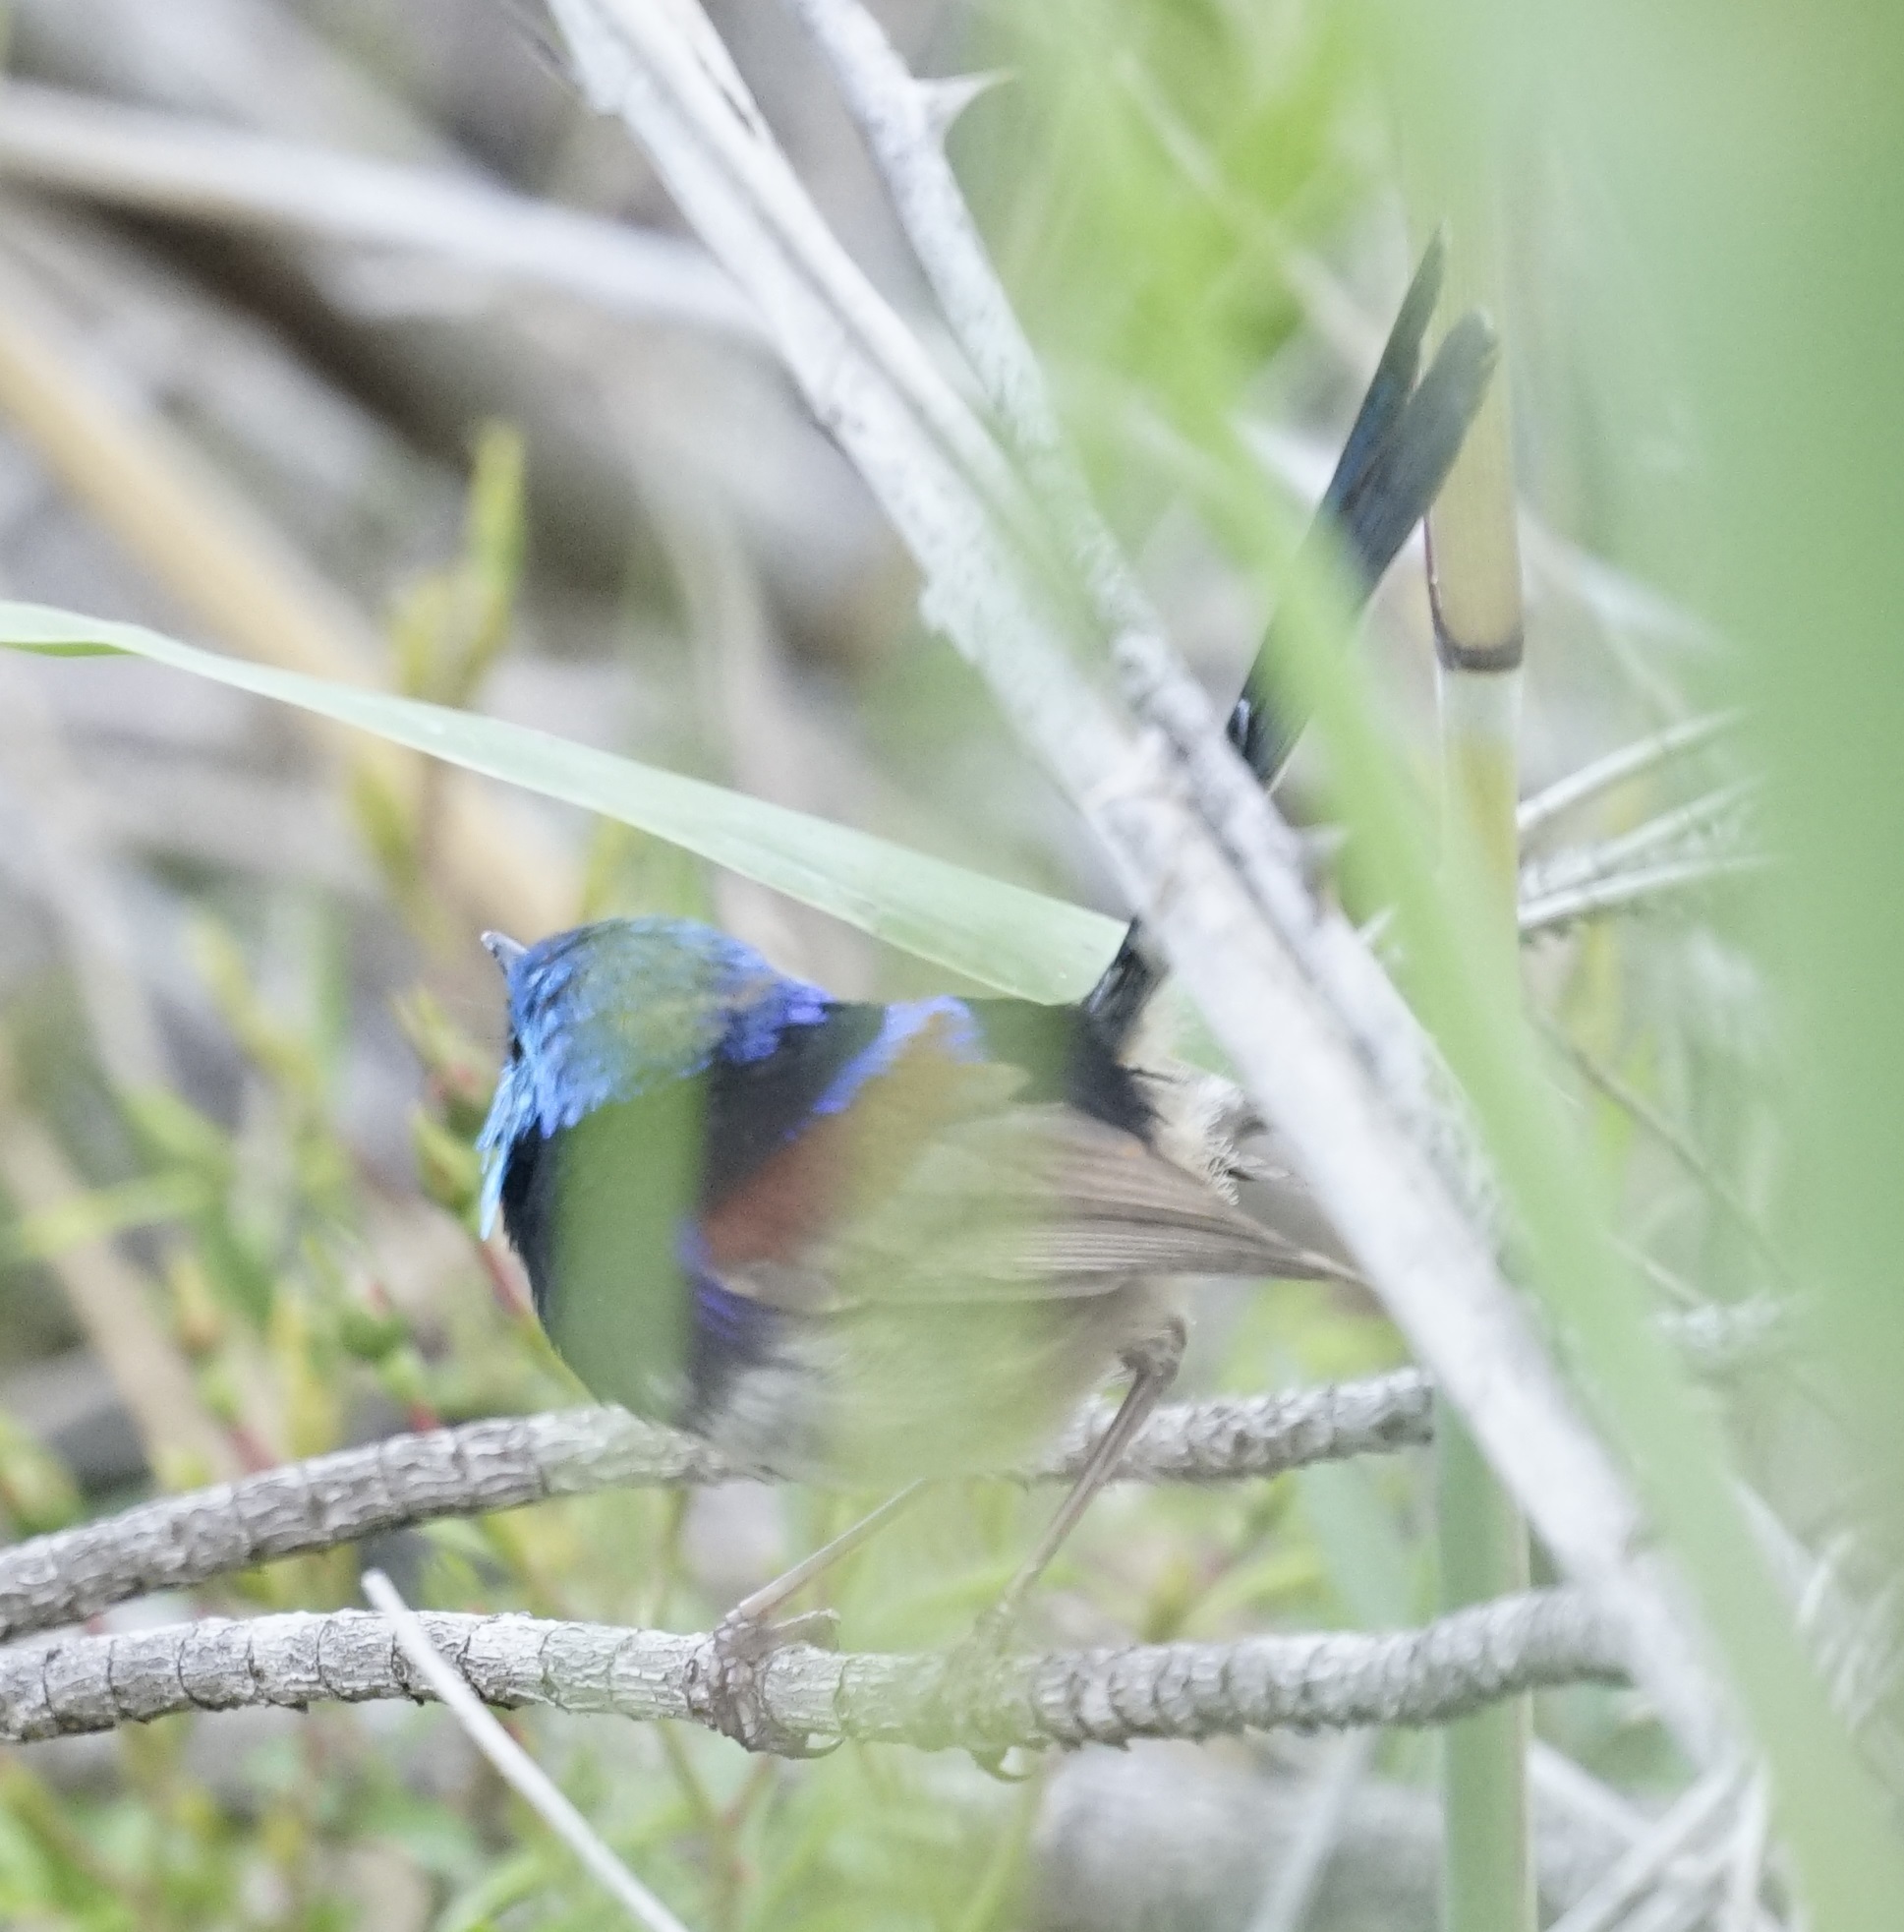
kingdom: Animalia
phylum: Chordata
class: Aves
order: Passeriformes
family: Maluridae
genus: Malurus
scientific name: Malurus lamberti
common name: Variegated fairywren
